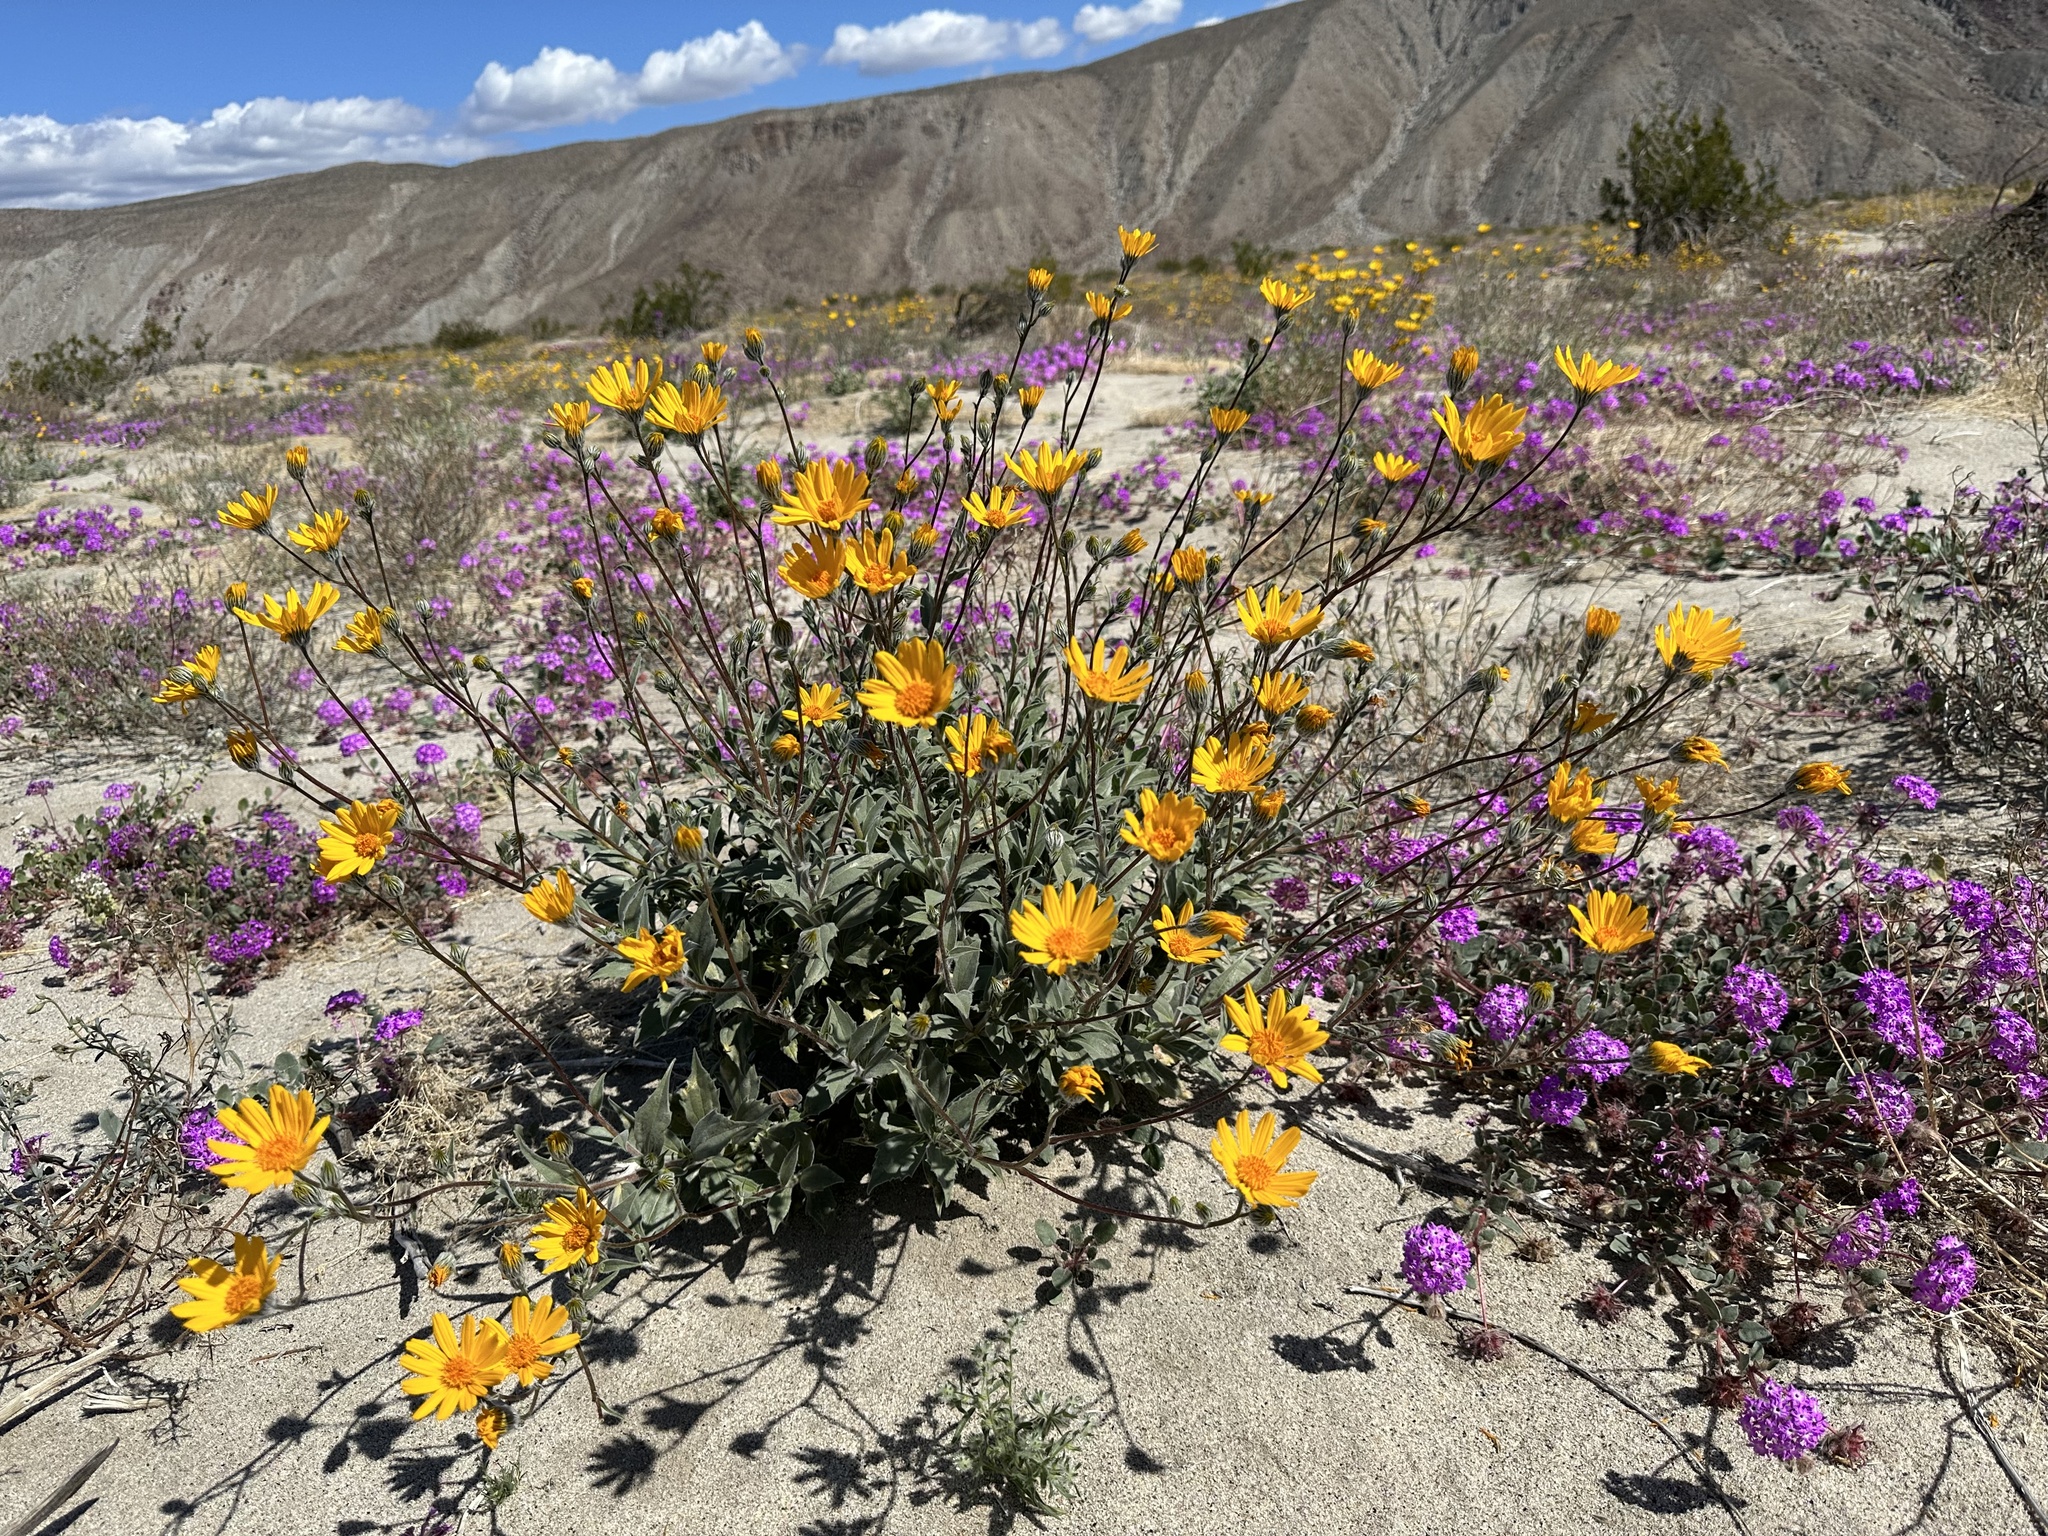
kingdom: Plantae
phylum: Tracheophyta
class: Magnoliopsida
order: Asterales
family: Asteraceae
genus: Geraea
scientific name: Geraea canescens
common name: Desert-gold
